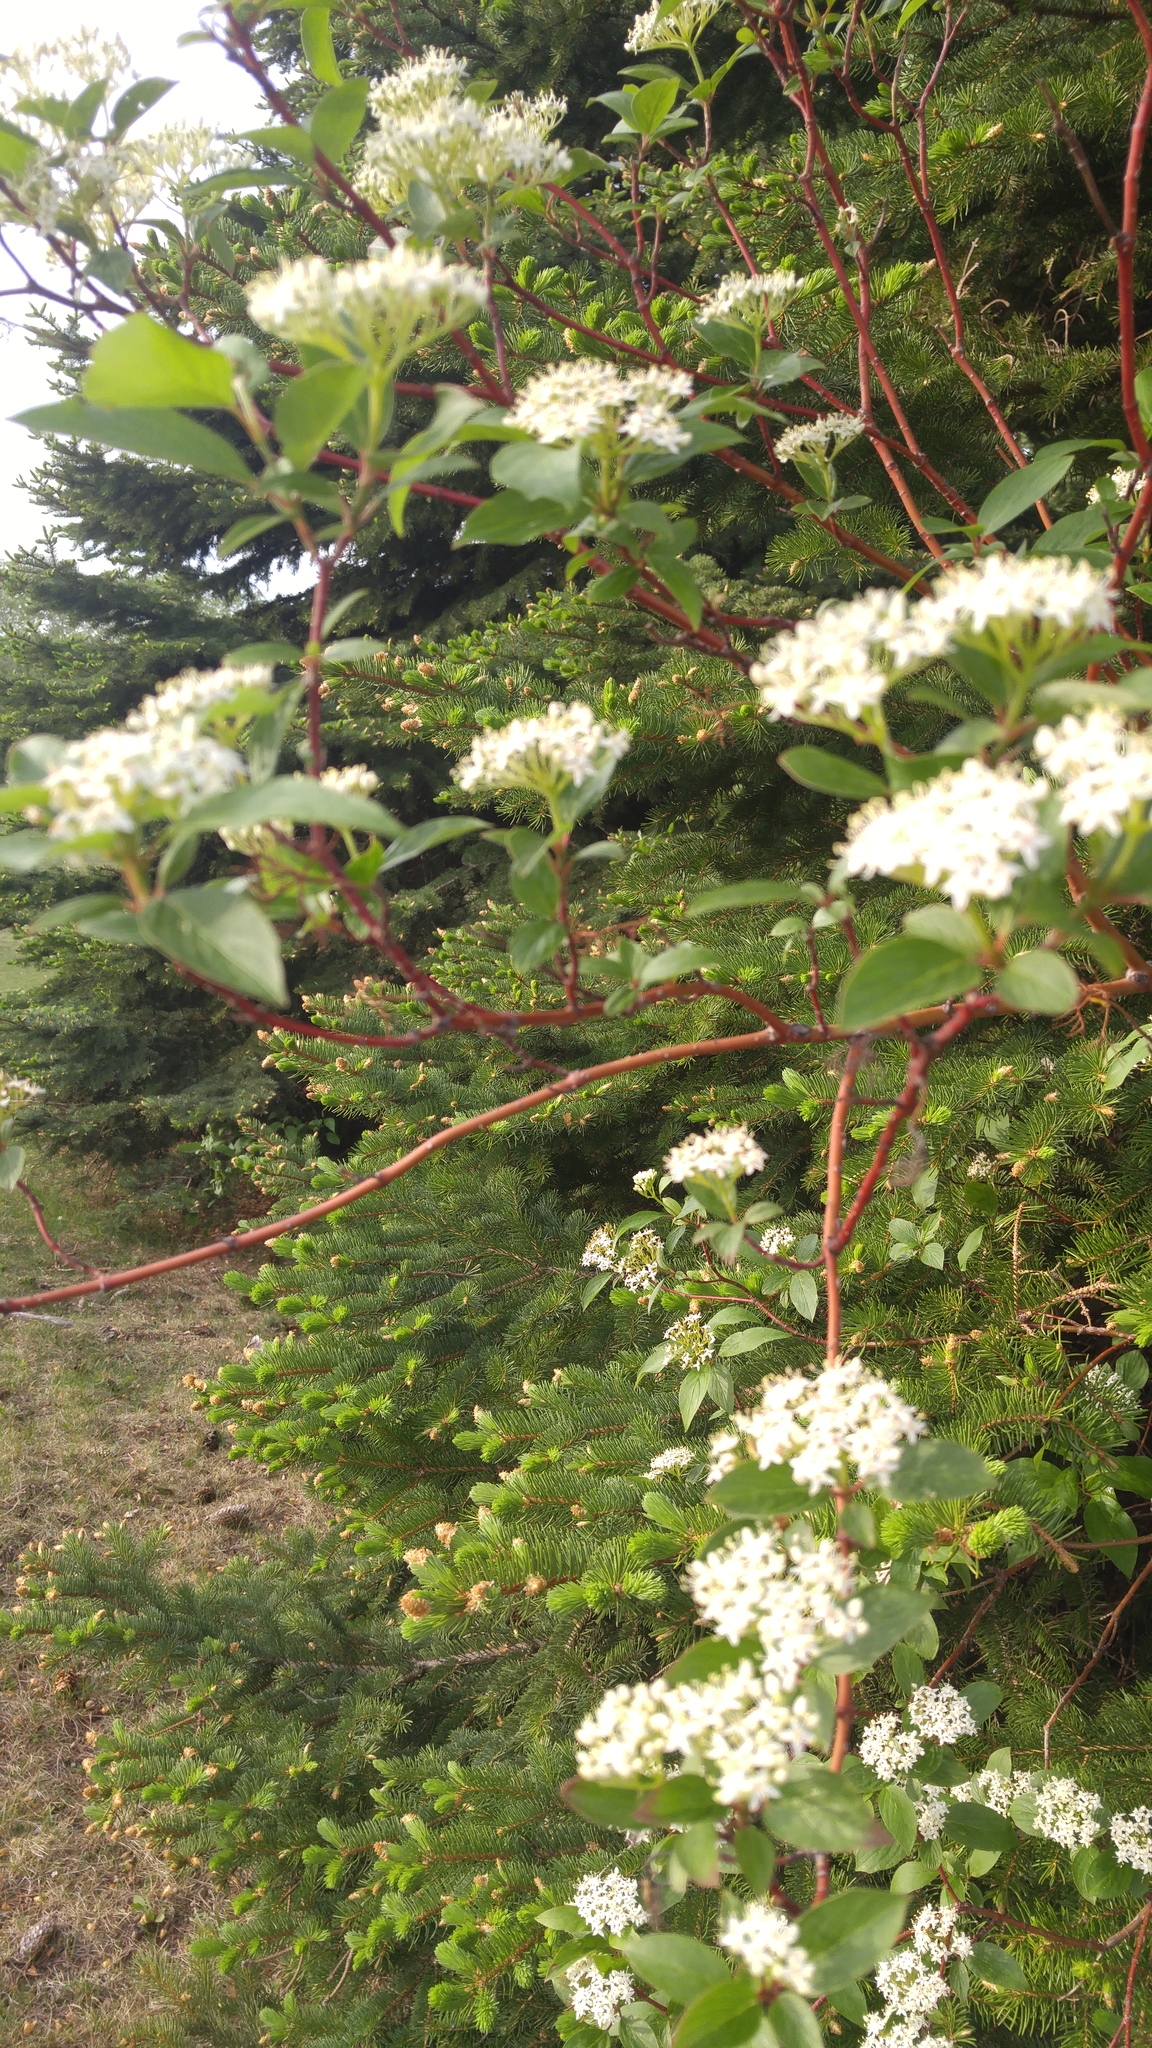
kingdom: Plantae
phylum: Tracheophyta
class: Magnoliopsida
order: Cornales
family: Cornaceae
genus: Cornus
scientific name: Cornus sericea
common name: Red-osier dogwood
